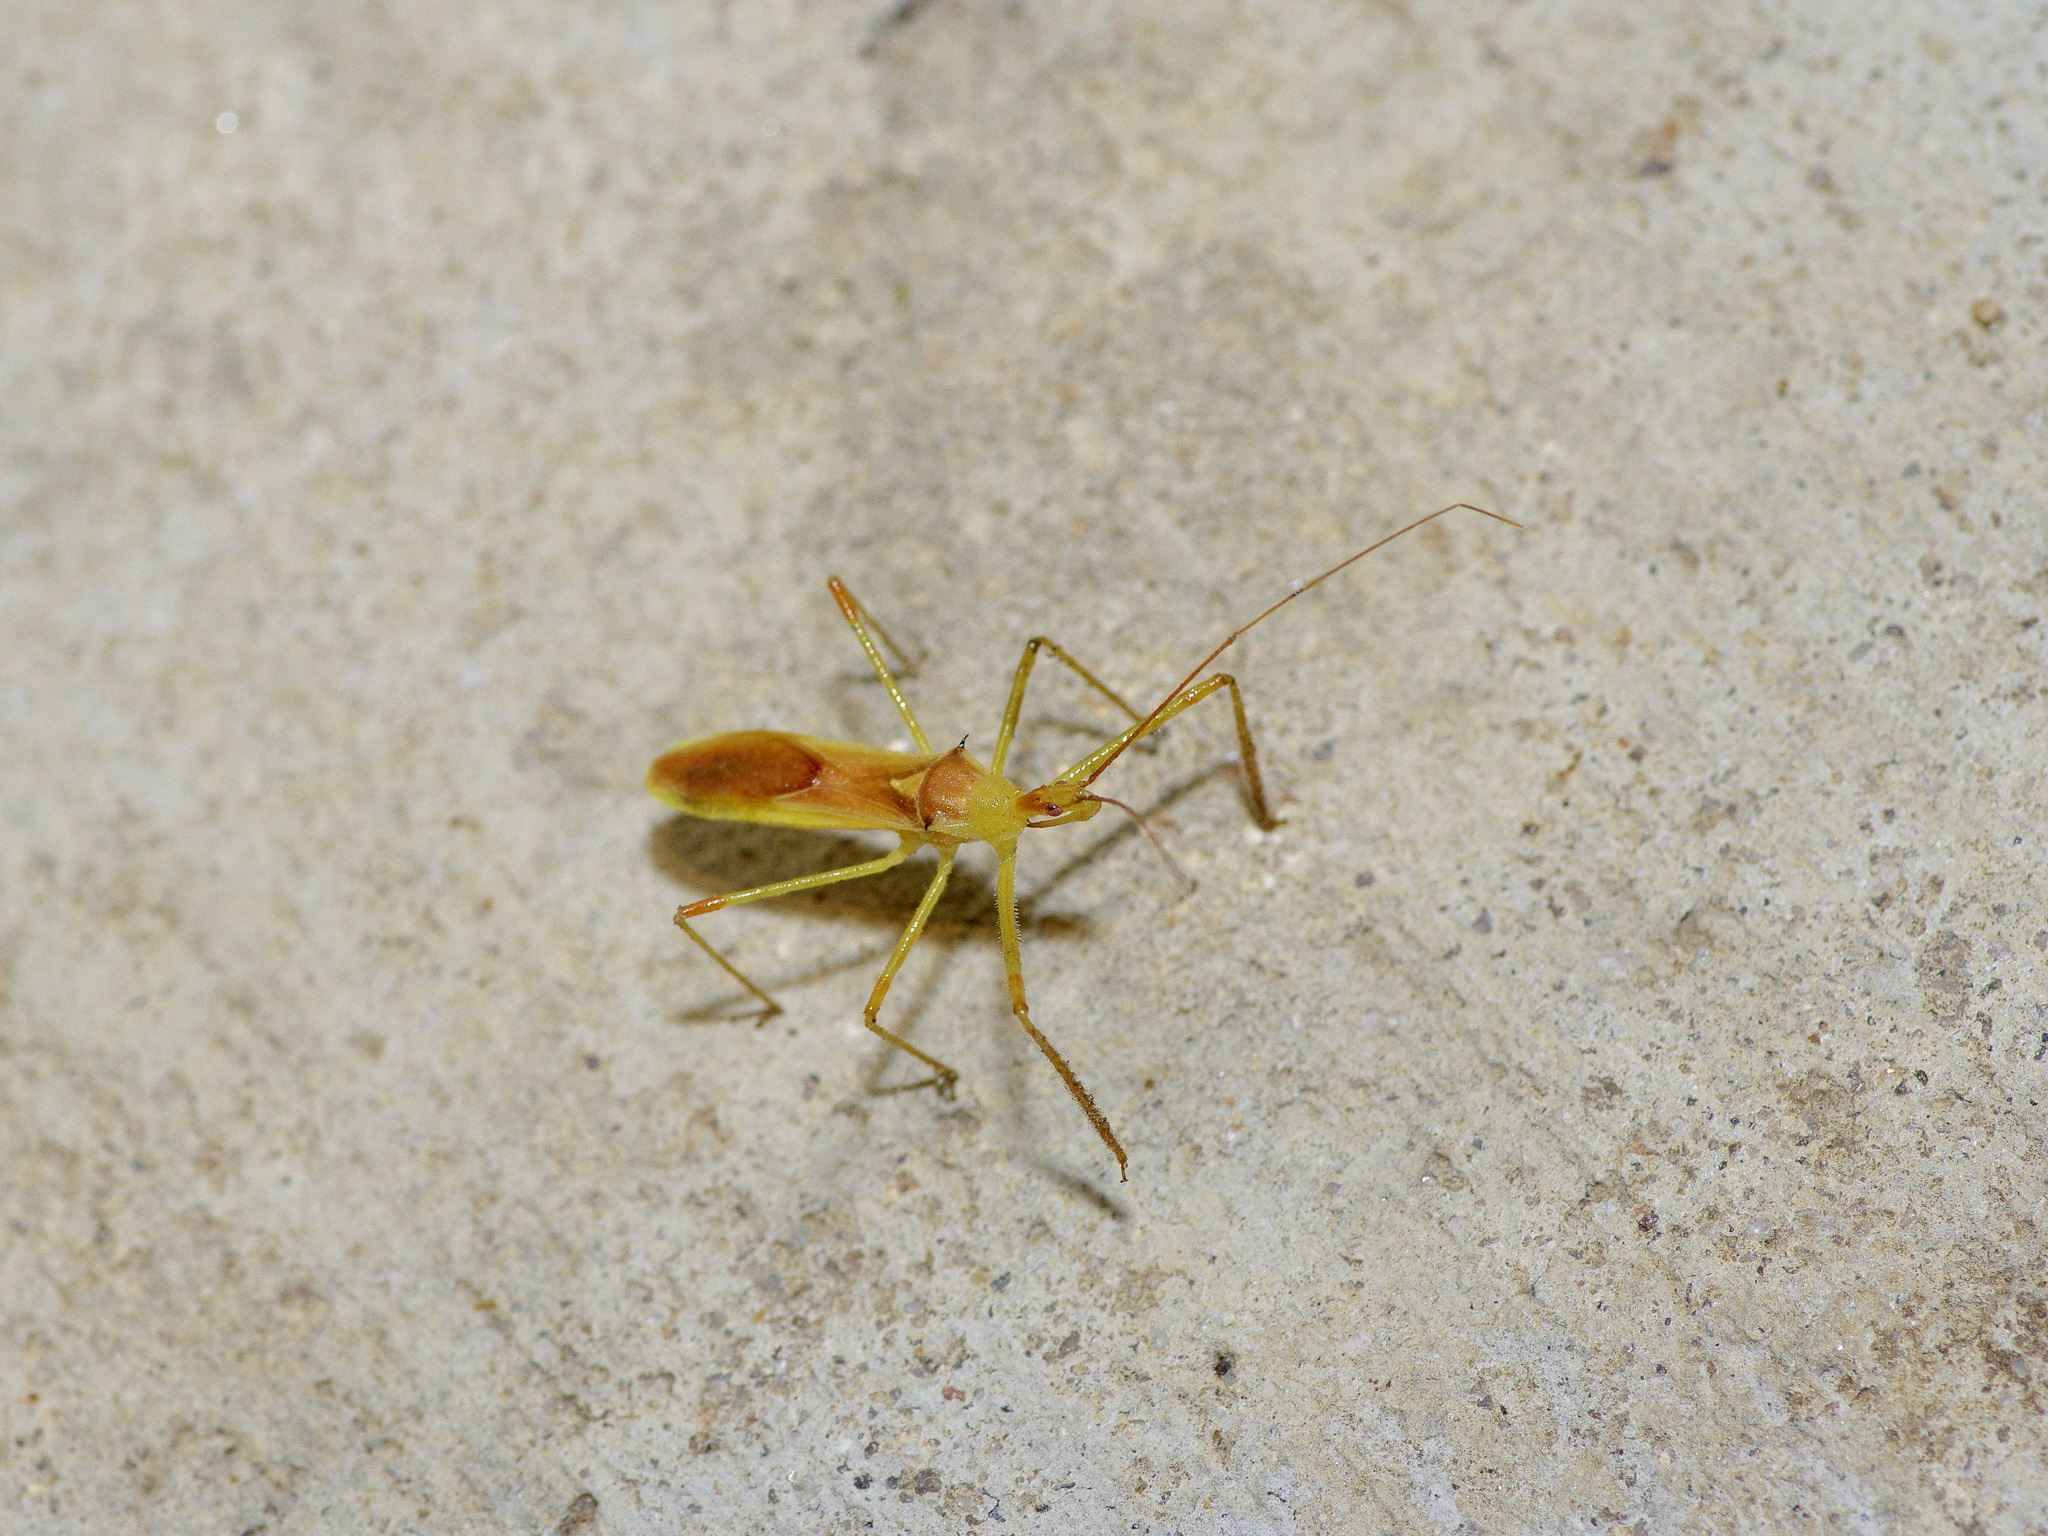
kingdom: Animalia
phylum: Arthropoda
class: Insecta
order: Hemiptera
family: Reduviidae
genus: Zelus
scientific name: Zelus luridus
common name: Pale green assassin bug
